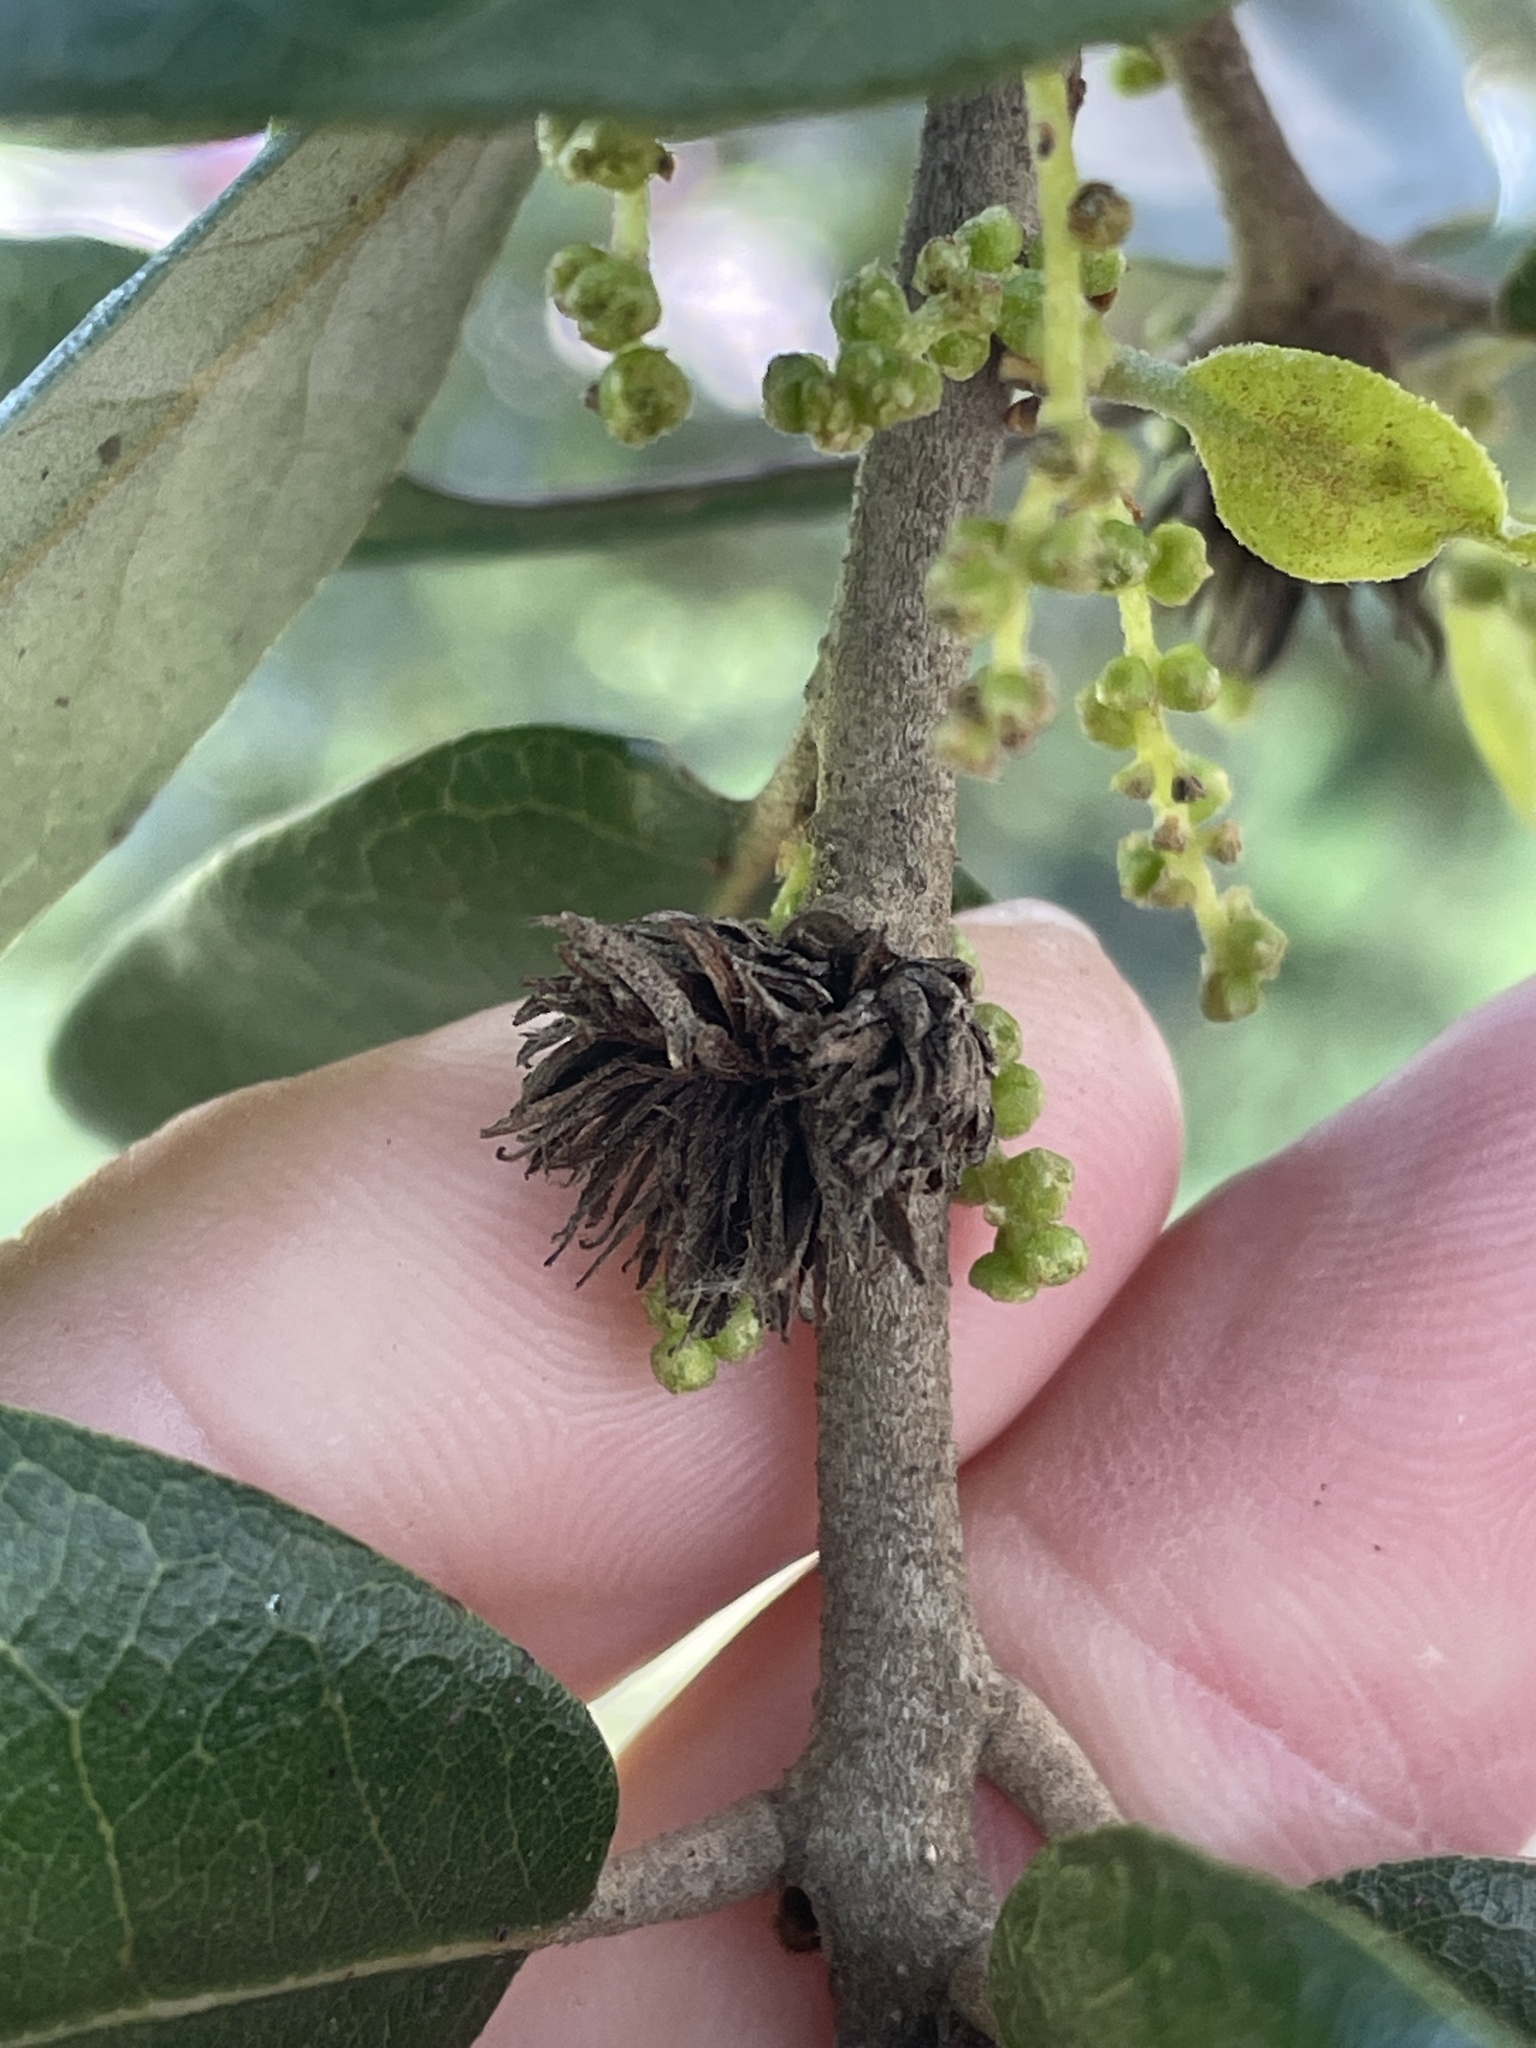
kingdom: Animalia
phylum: Arthropoda
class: Insecta
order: Hymenoptera
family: Cynipidae
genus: Andricus
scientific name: Andricus quercusfoliatus
